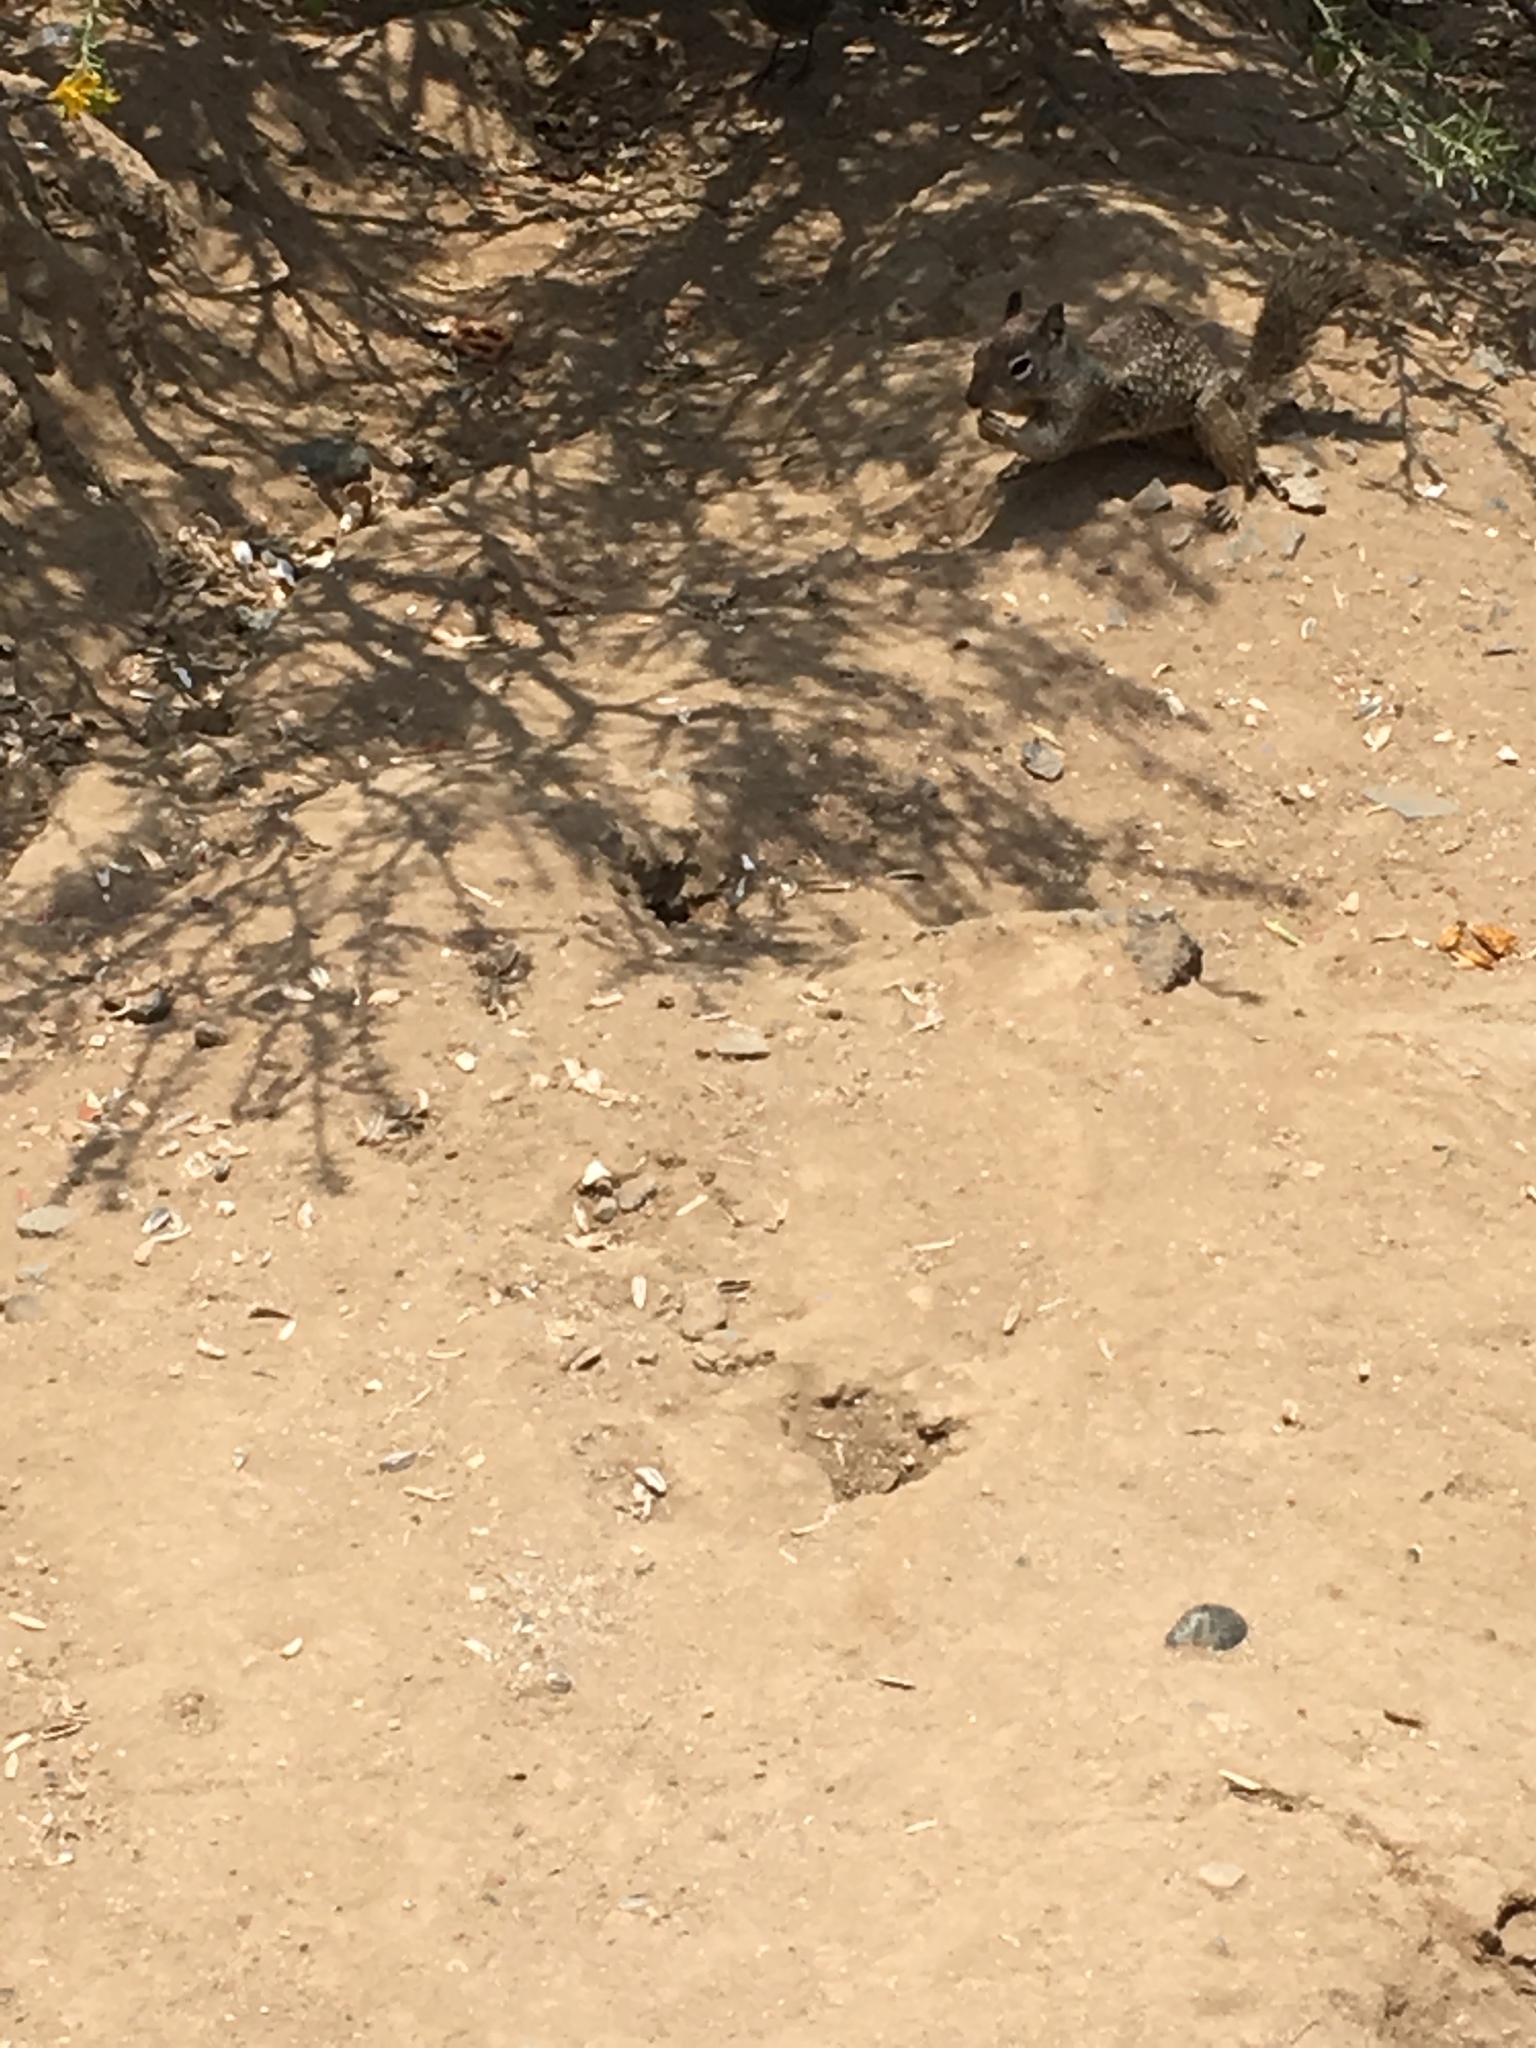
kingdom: Animalia
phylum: Chordata
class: Mammalia
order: Rodentia
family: Sciuridae
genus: Otospermophilus
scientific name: Otospermophilus beecheyi
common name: California ground squirrel
